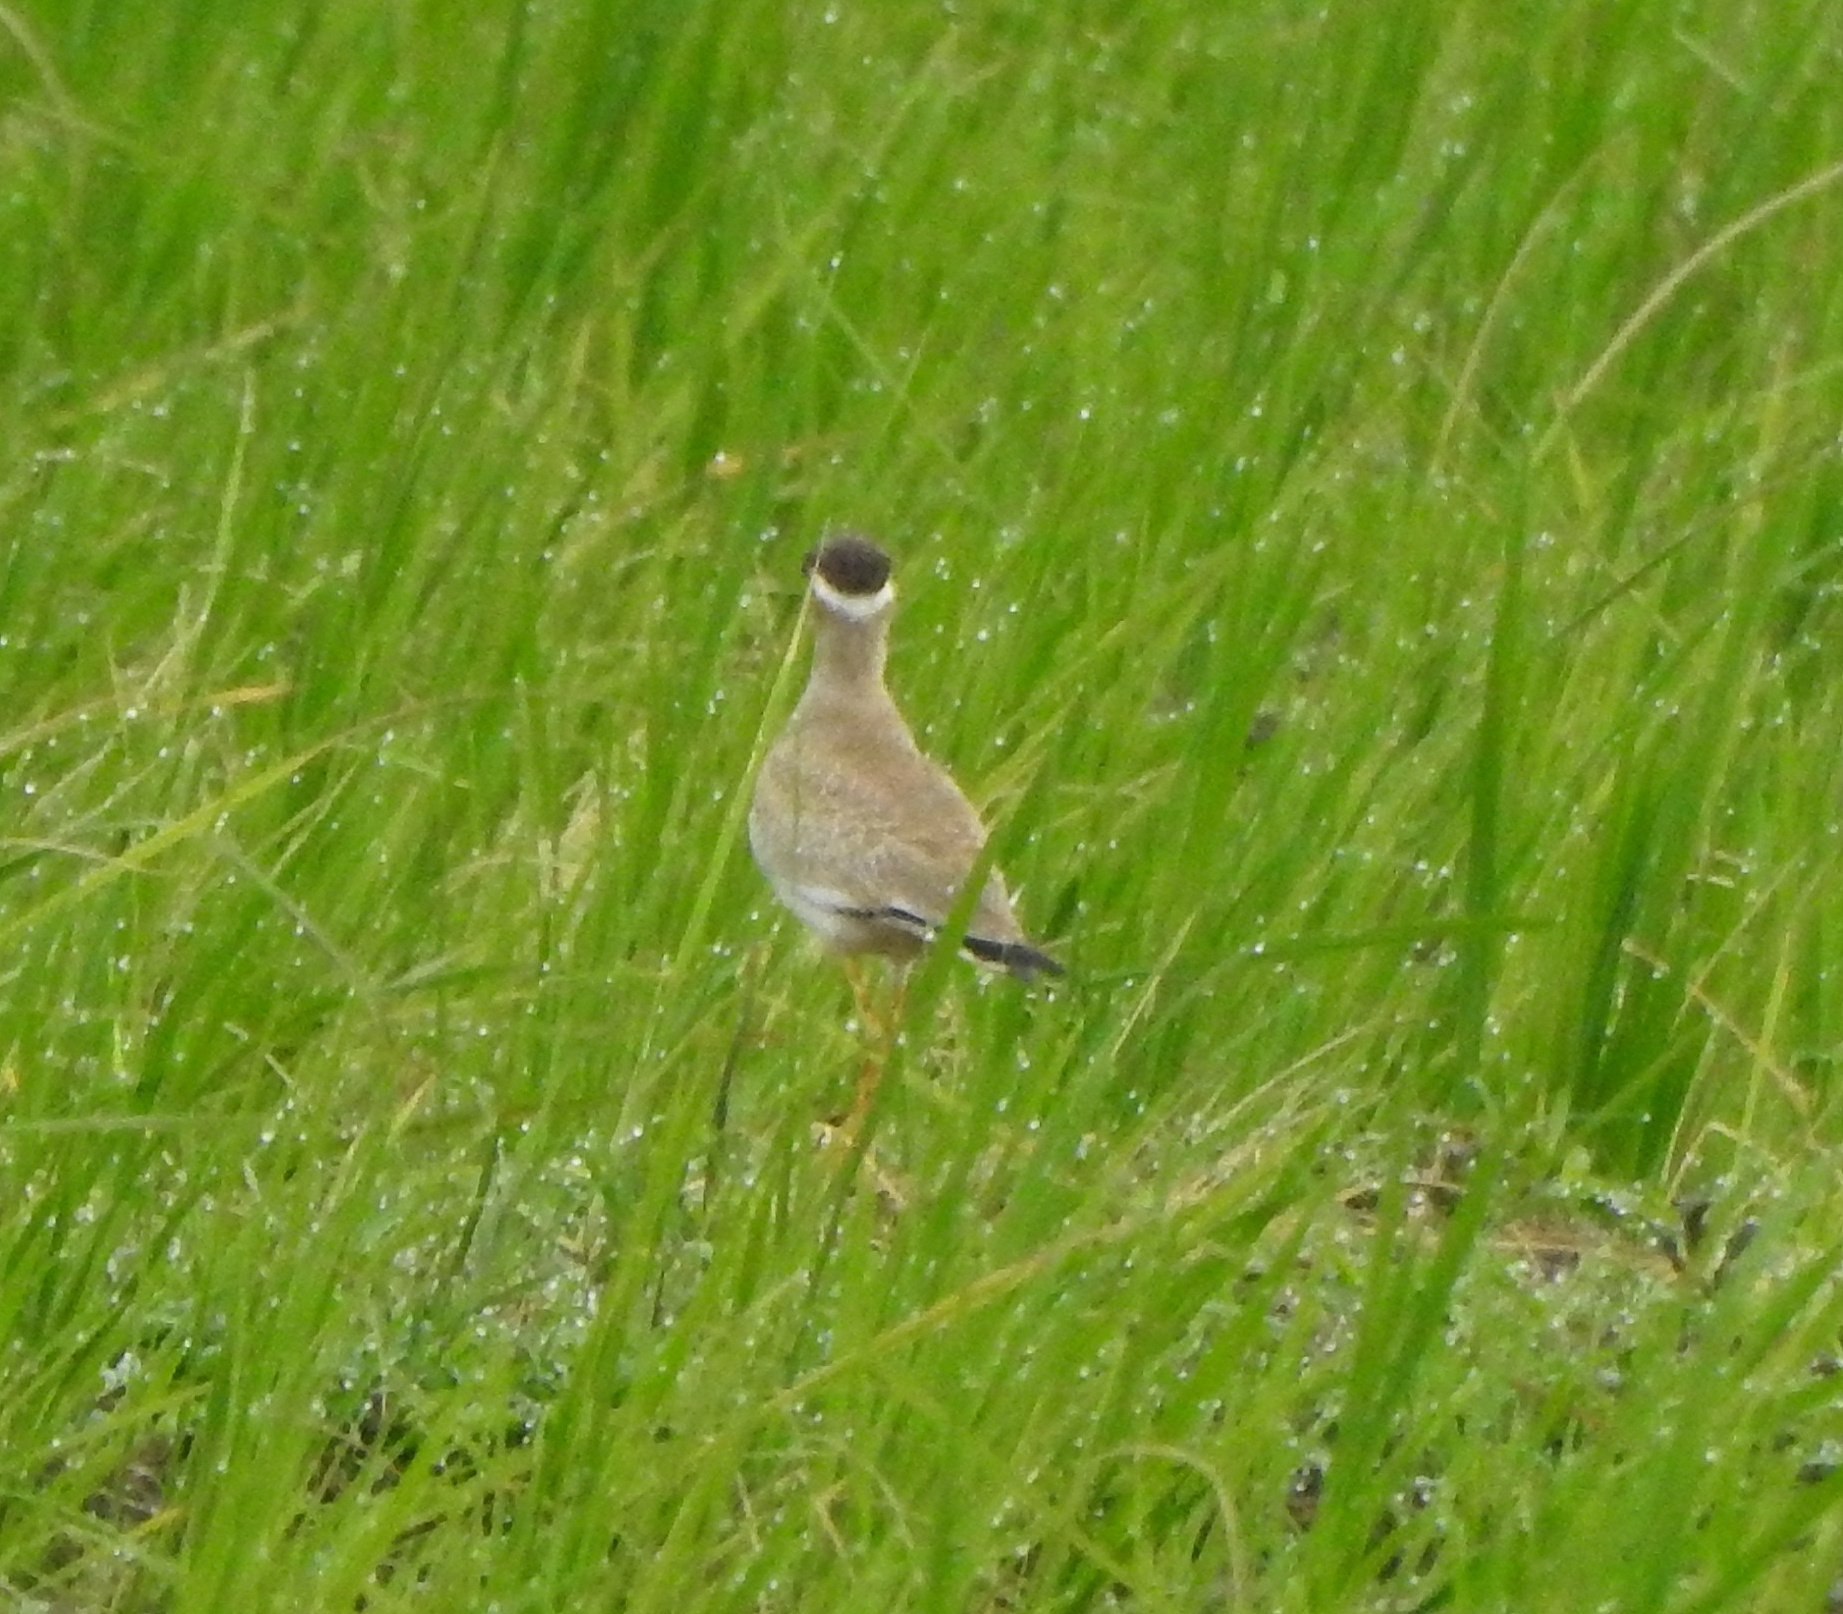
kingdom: Animalia
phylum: Chordata
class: Aves
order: Charadriiformes
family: Charadriidae
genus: Vanellus
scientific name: Vanellus malabaricus
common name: Yellow-wattled lapwing
